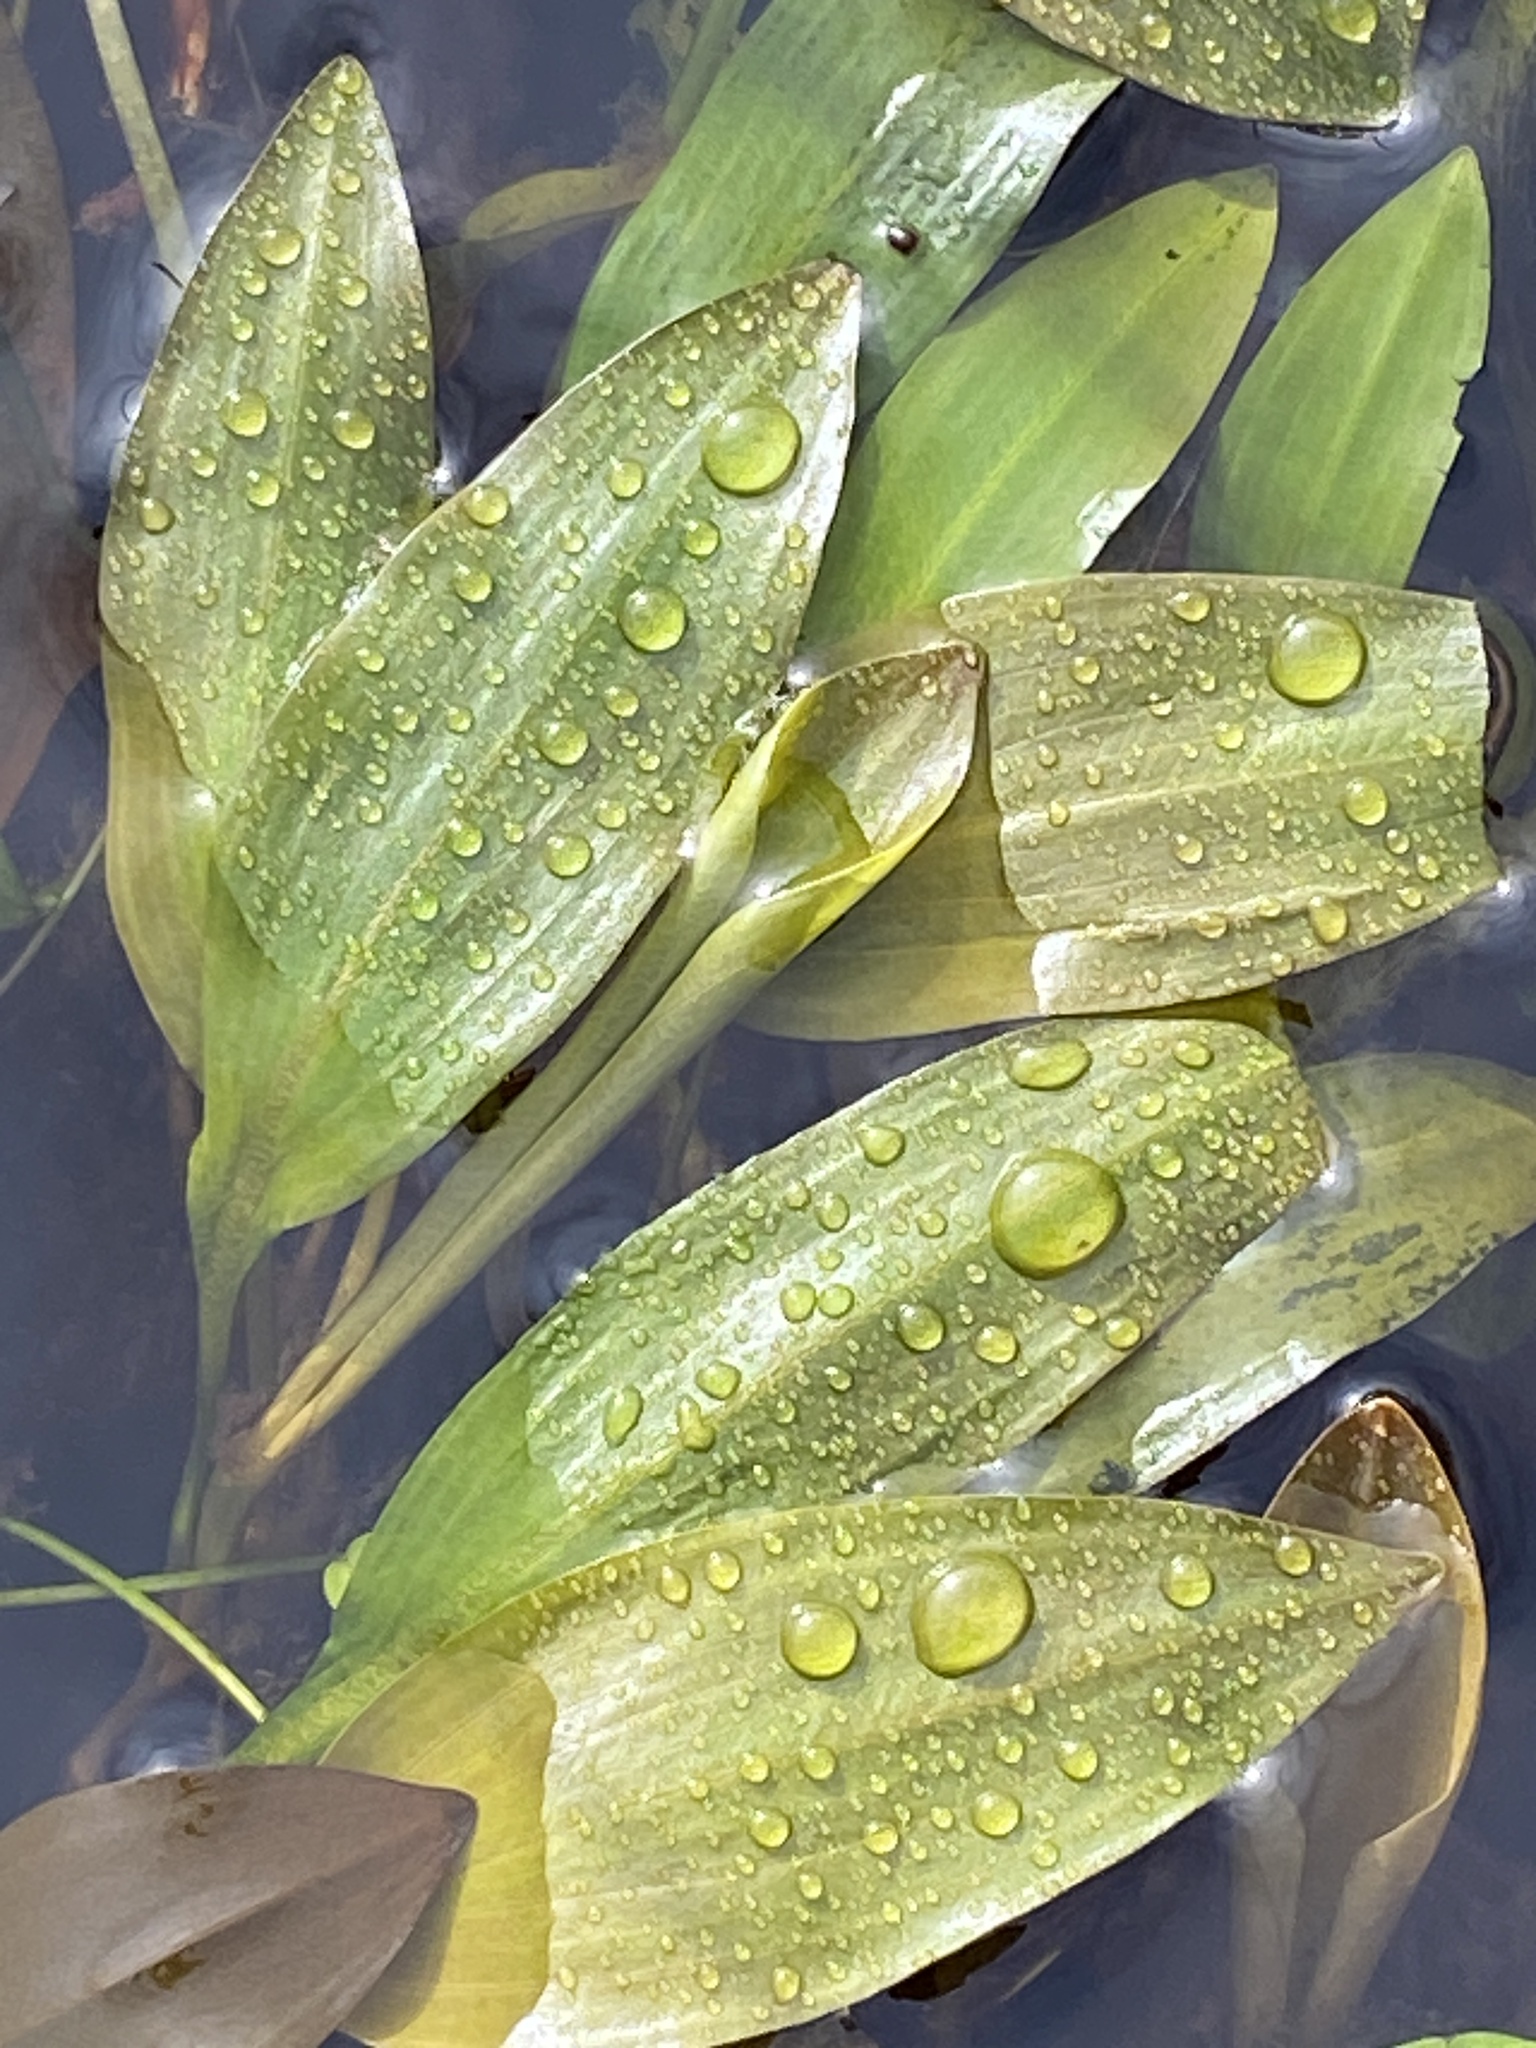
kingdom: Plantae
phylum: Tracheophyta
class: Liliopsida
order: Alismatales
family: Potamogetonaceae
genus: Potamogeton
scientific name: Potamogeton polygonifolius
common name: Bog pondweed
